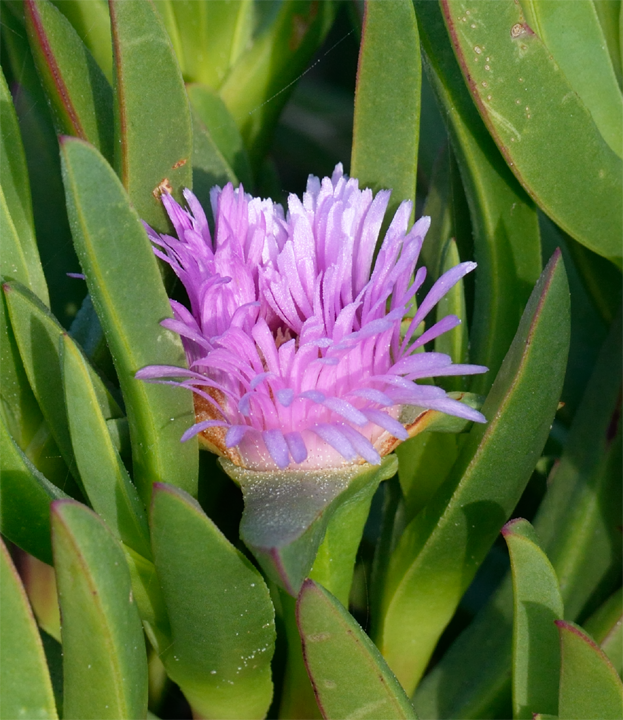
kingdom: Plantae
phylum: Tracheophyta
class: Magnoliopsida
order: Caryophyllales
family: Aizoaceae
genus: Carpobrotus
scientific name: Carpobrotus chilensis
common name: Sea fig
